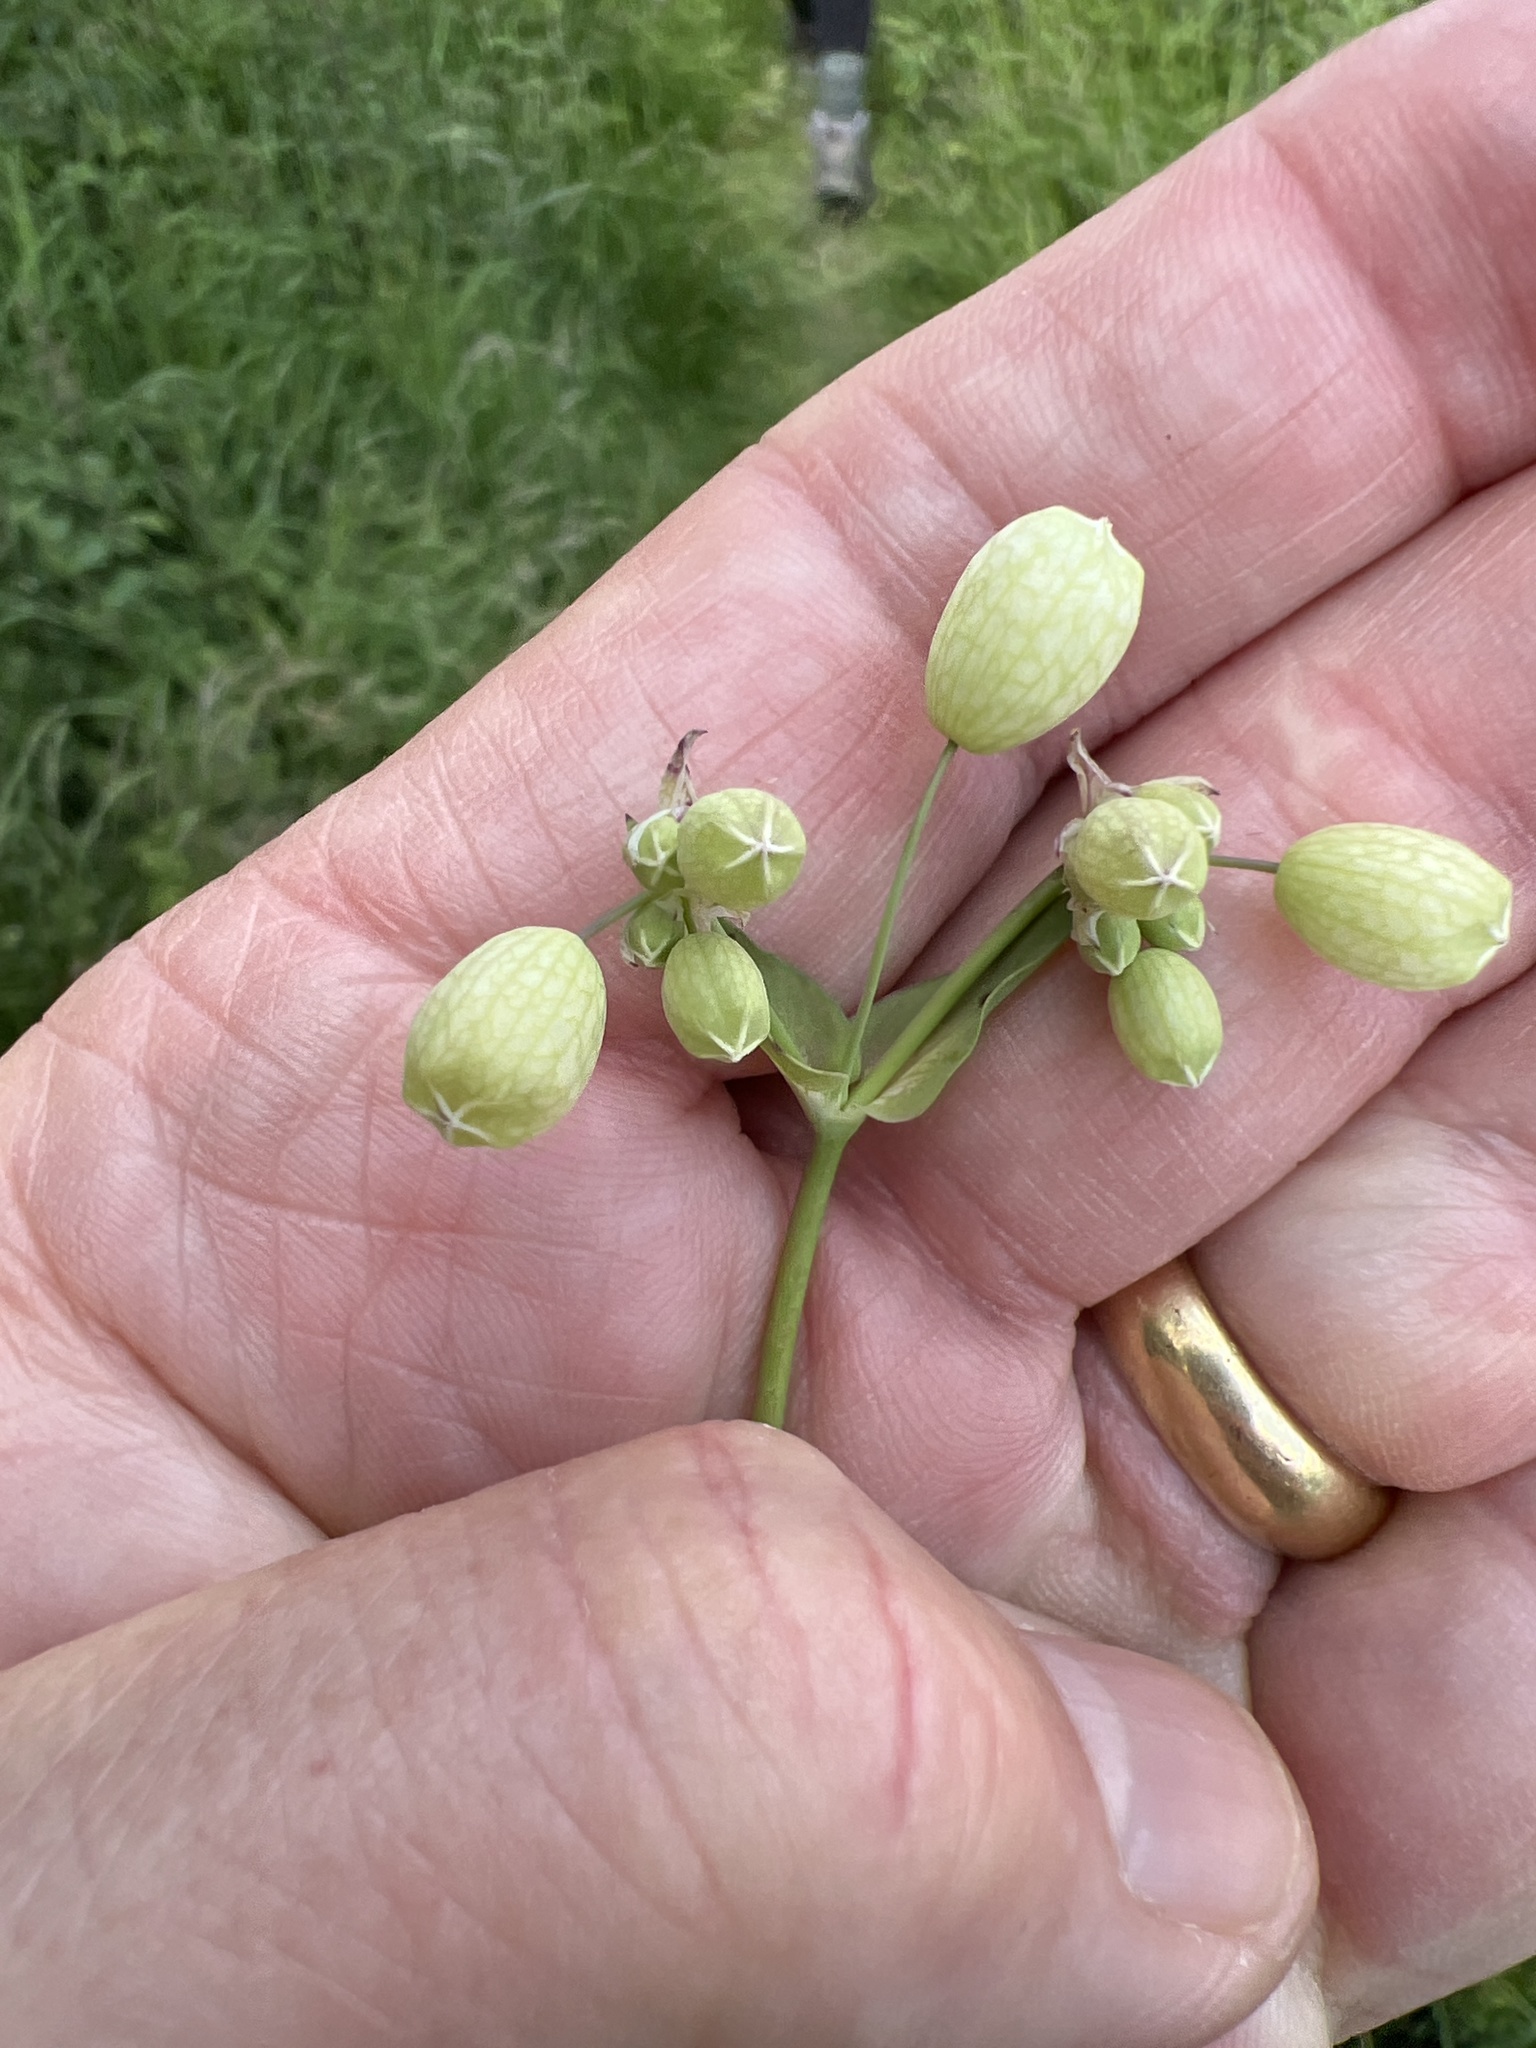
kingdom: Plantae
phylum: Tracheophyta
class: Magnoliopsida
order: Caryophyllales
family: Caryophyllaceae
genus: Silene
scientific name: Silene vulgaris
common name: Bladder campion
